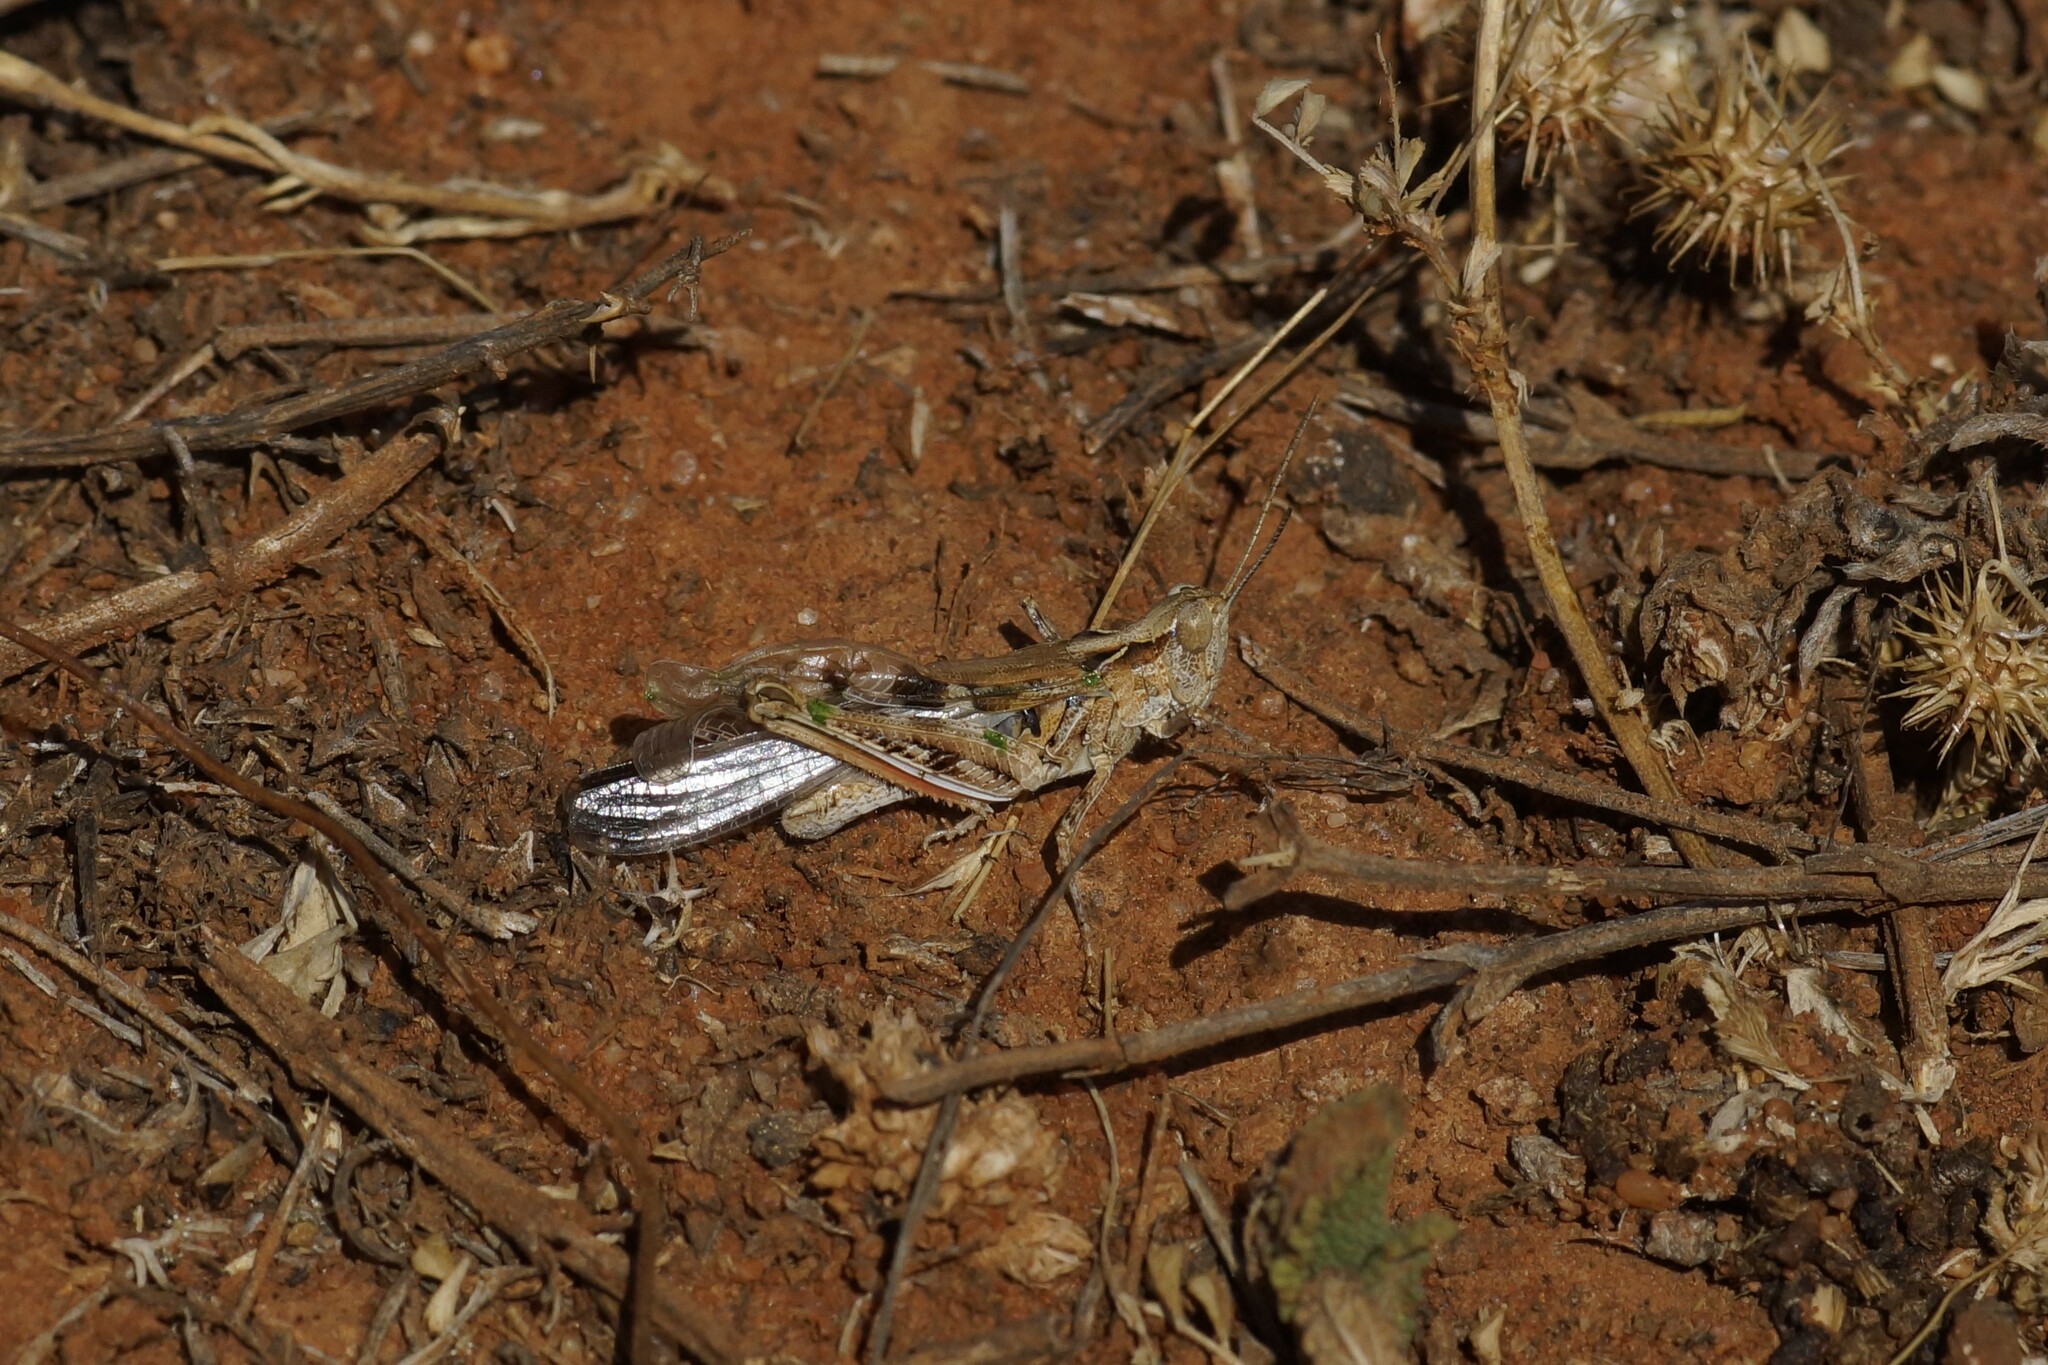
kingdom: Animalia
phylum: Arthropoda
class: Insecta
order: Orthoptera
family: Acrididae
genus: Chortoicetes
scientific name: Chortoicetes terminifera
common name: Australian plague locust
